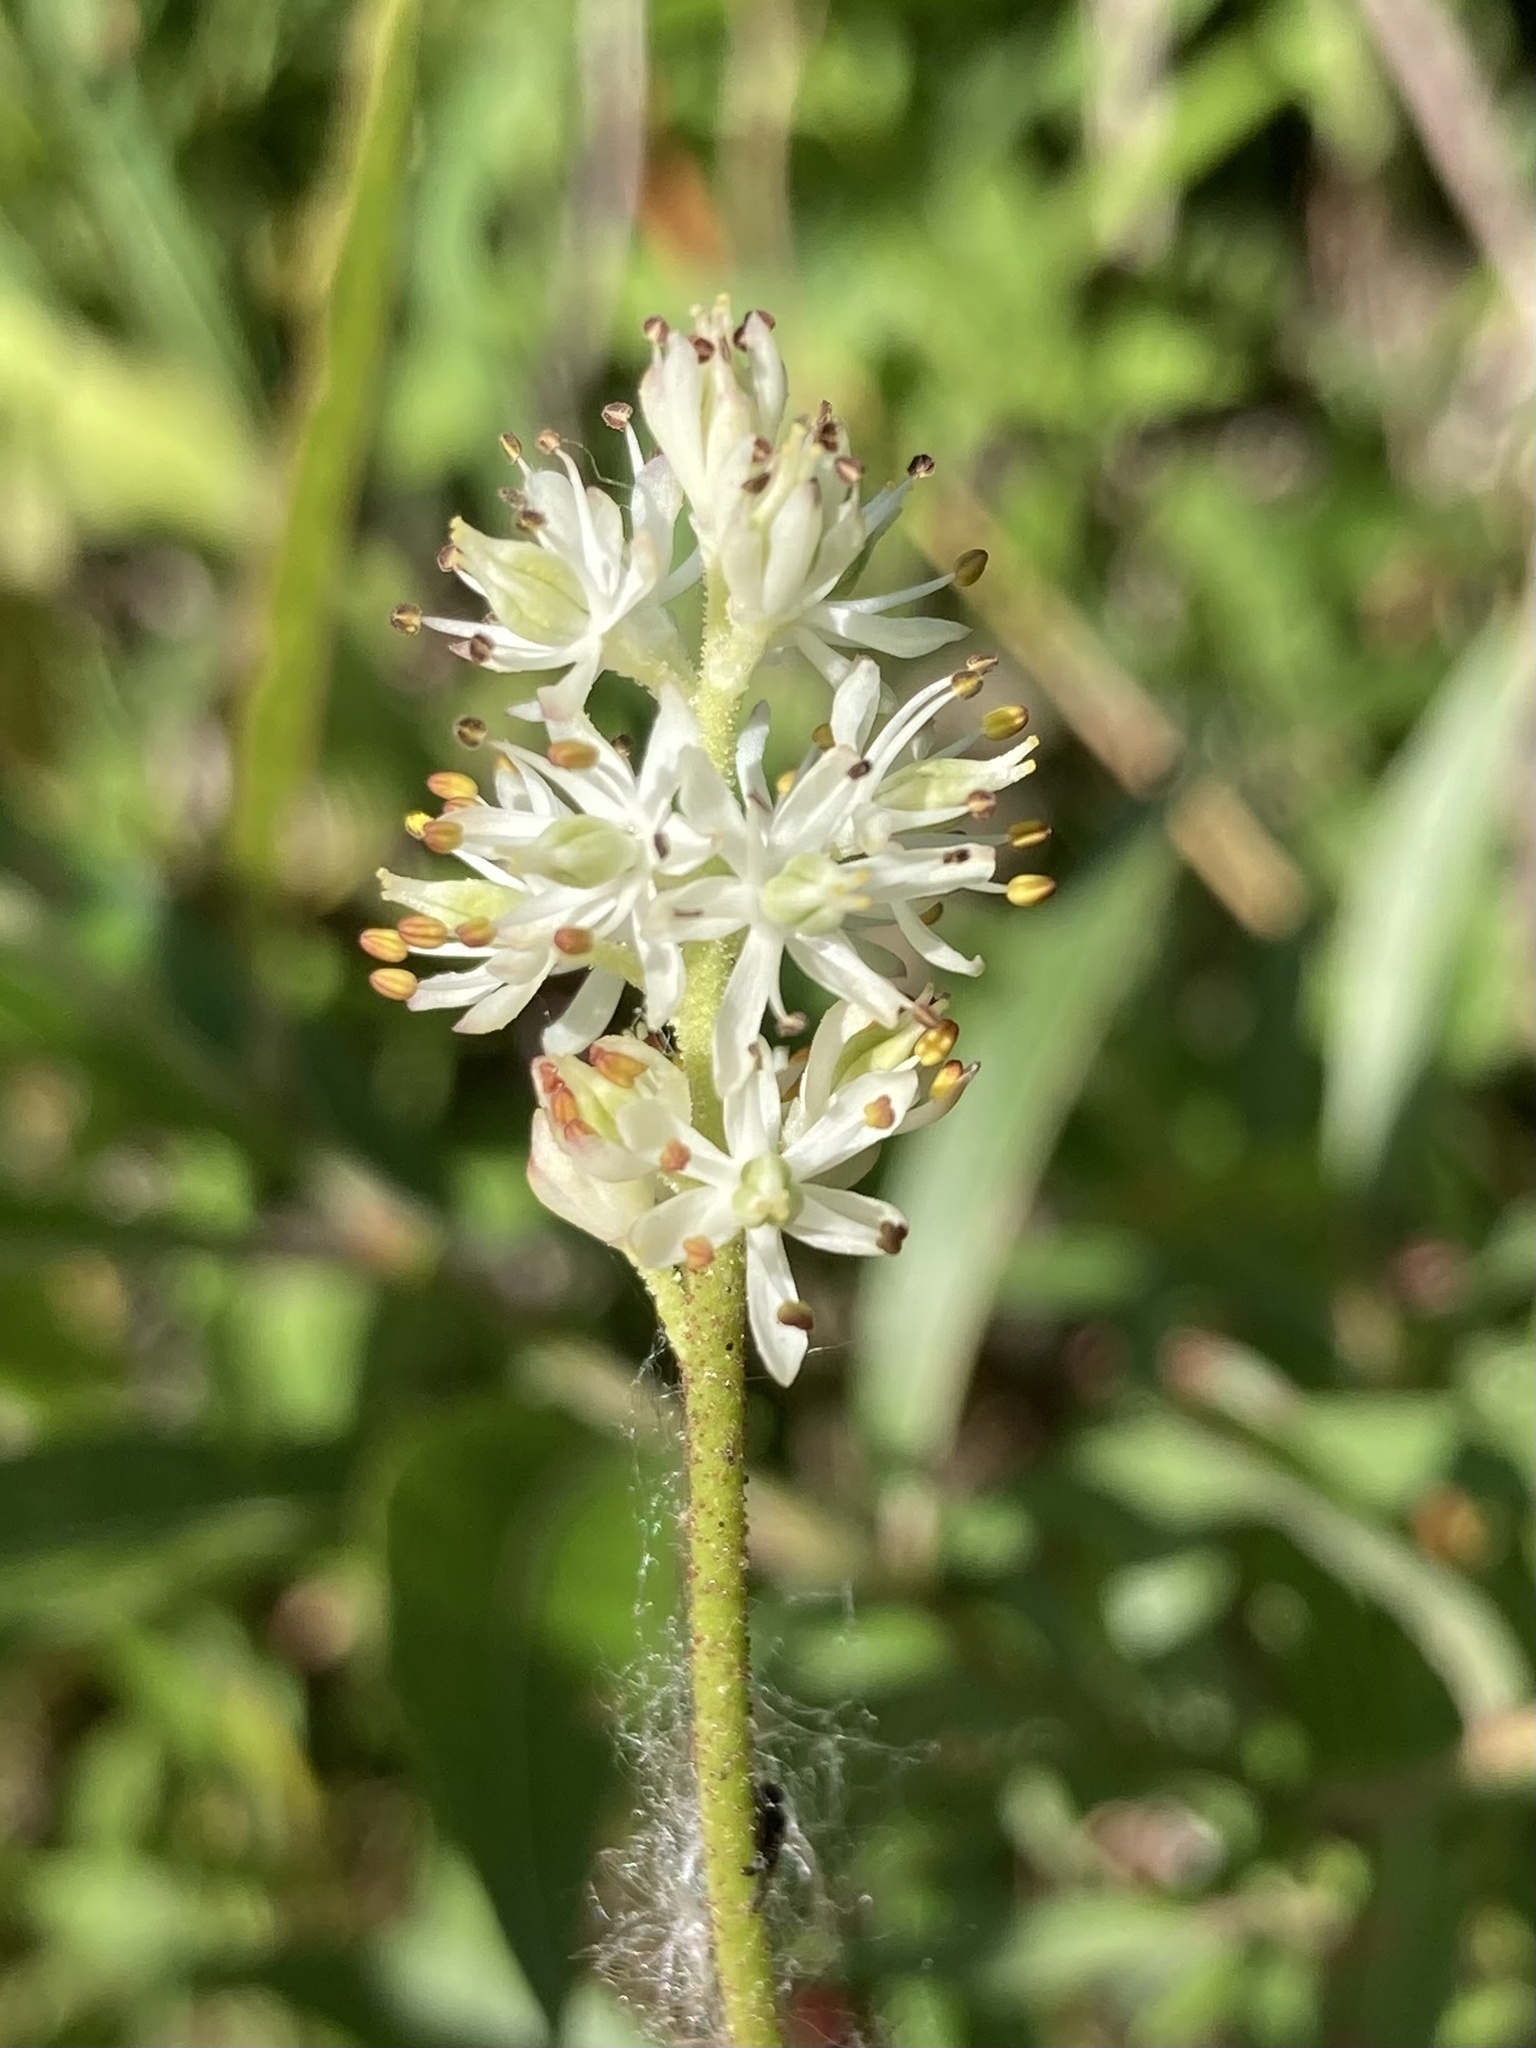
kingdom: Plantae
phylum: Tracheophyta
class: Liliopsida
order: Alismatales
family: Tofieldiaceae
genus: Triantha
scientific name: Triantha glutinosa
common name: Glutinous tofieldia
